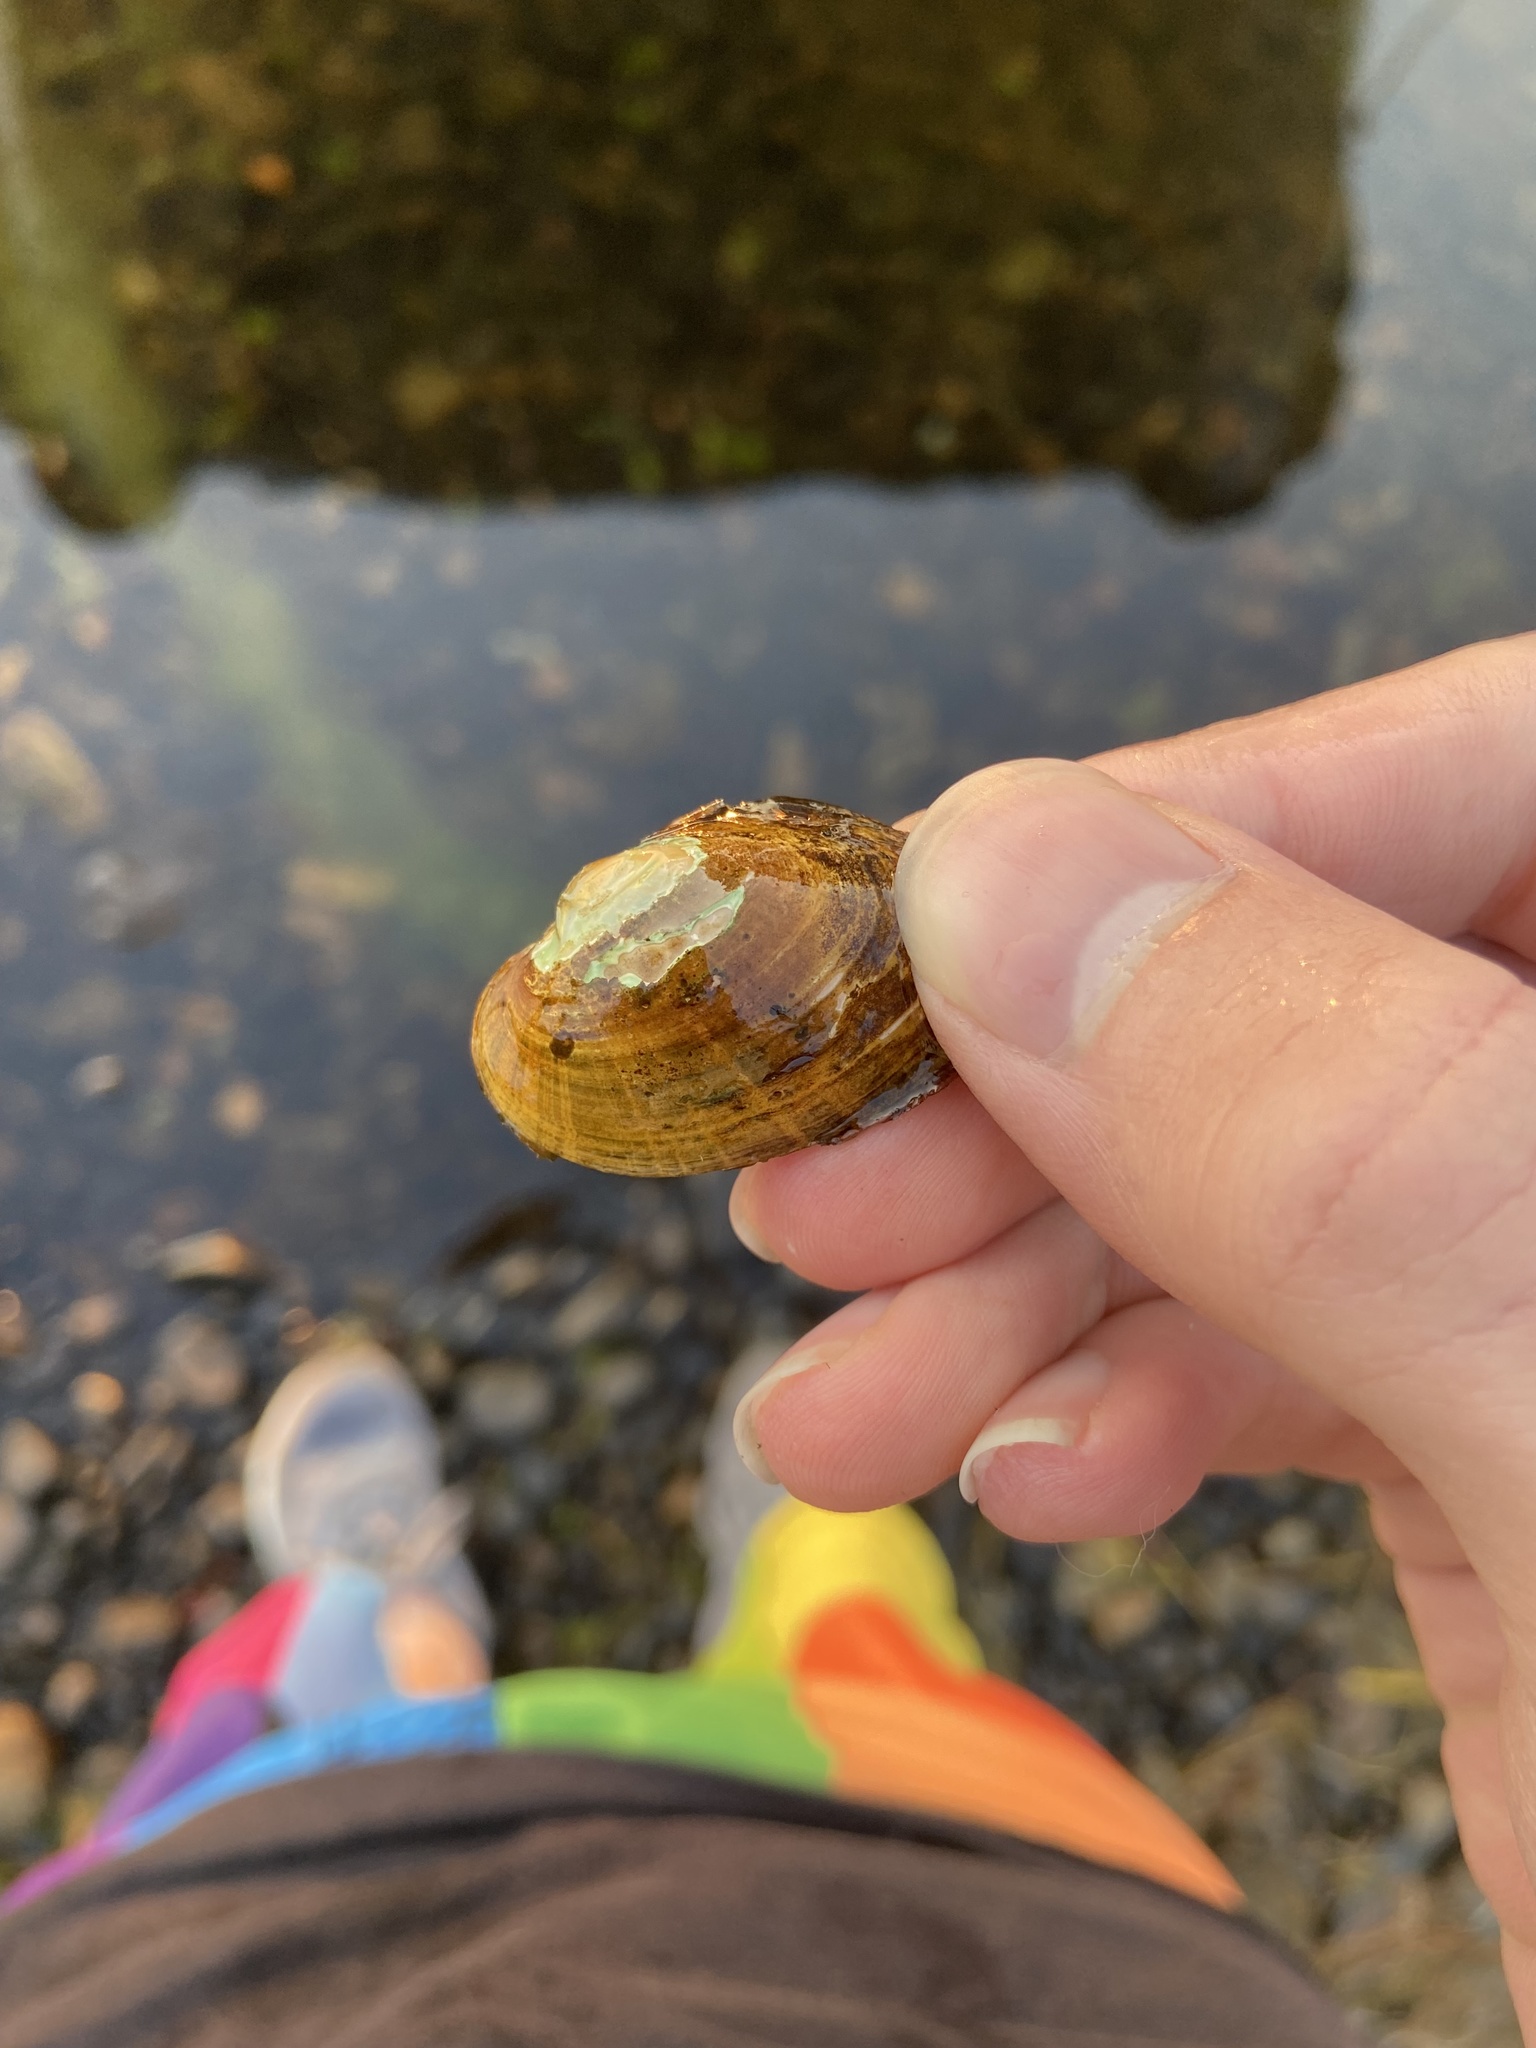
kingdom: Animalia
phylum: Mollusca
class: Bivalvia
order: Unionida
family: Unionidae
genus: Alasmidonta
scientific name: Alasmidonta undulata
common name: Triangle floater
